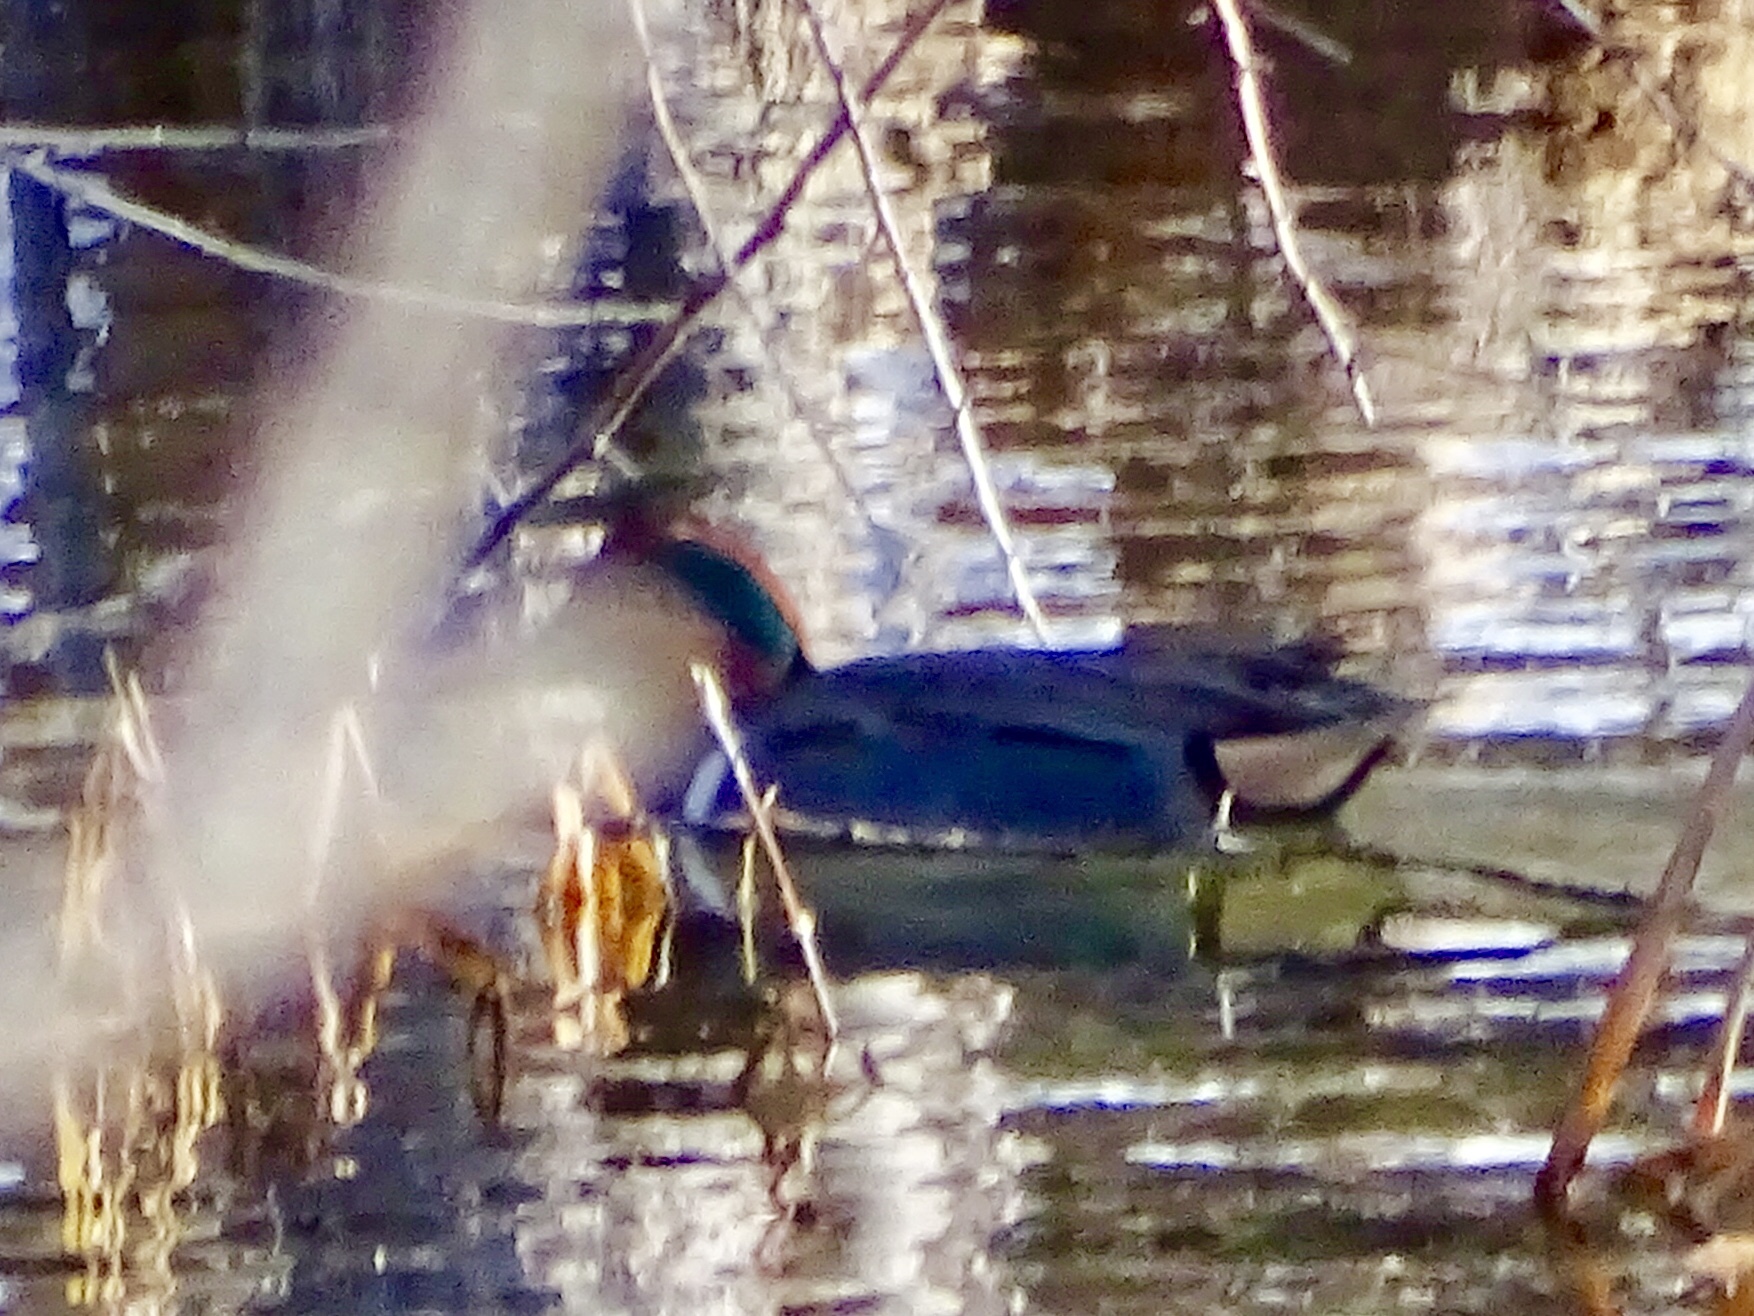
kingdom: Animalia
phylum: Chordata
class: Aves
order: Anseriformes
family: Anatidae
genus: Anas
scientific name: Anas crecca
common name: Eurasian teal
